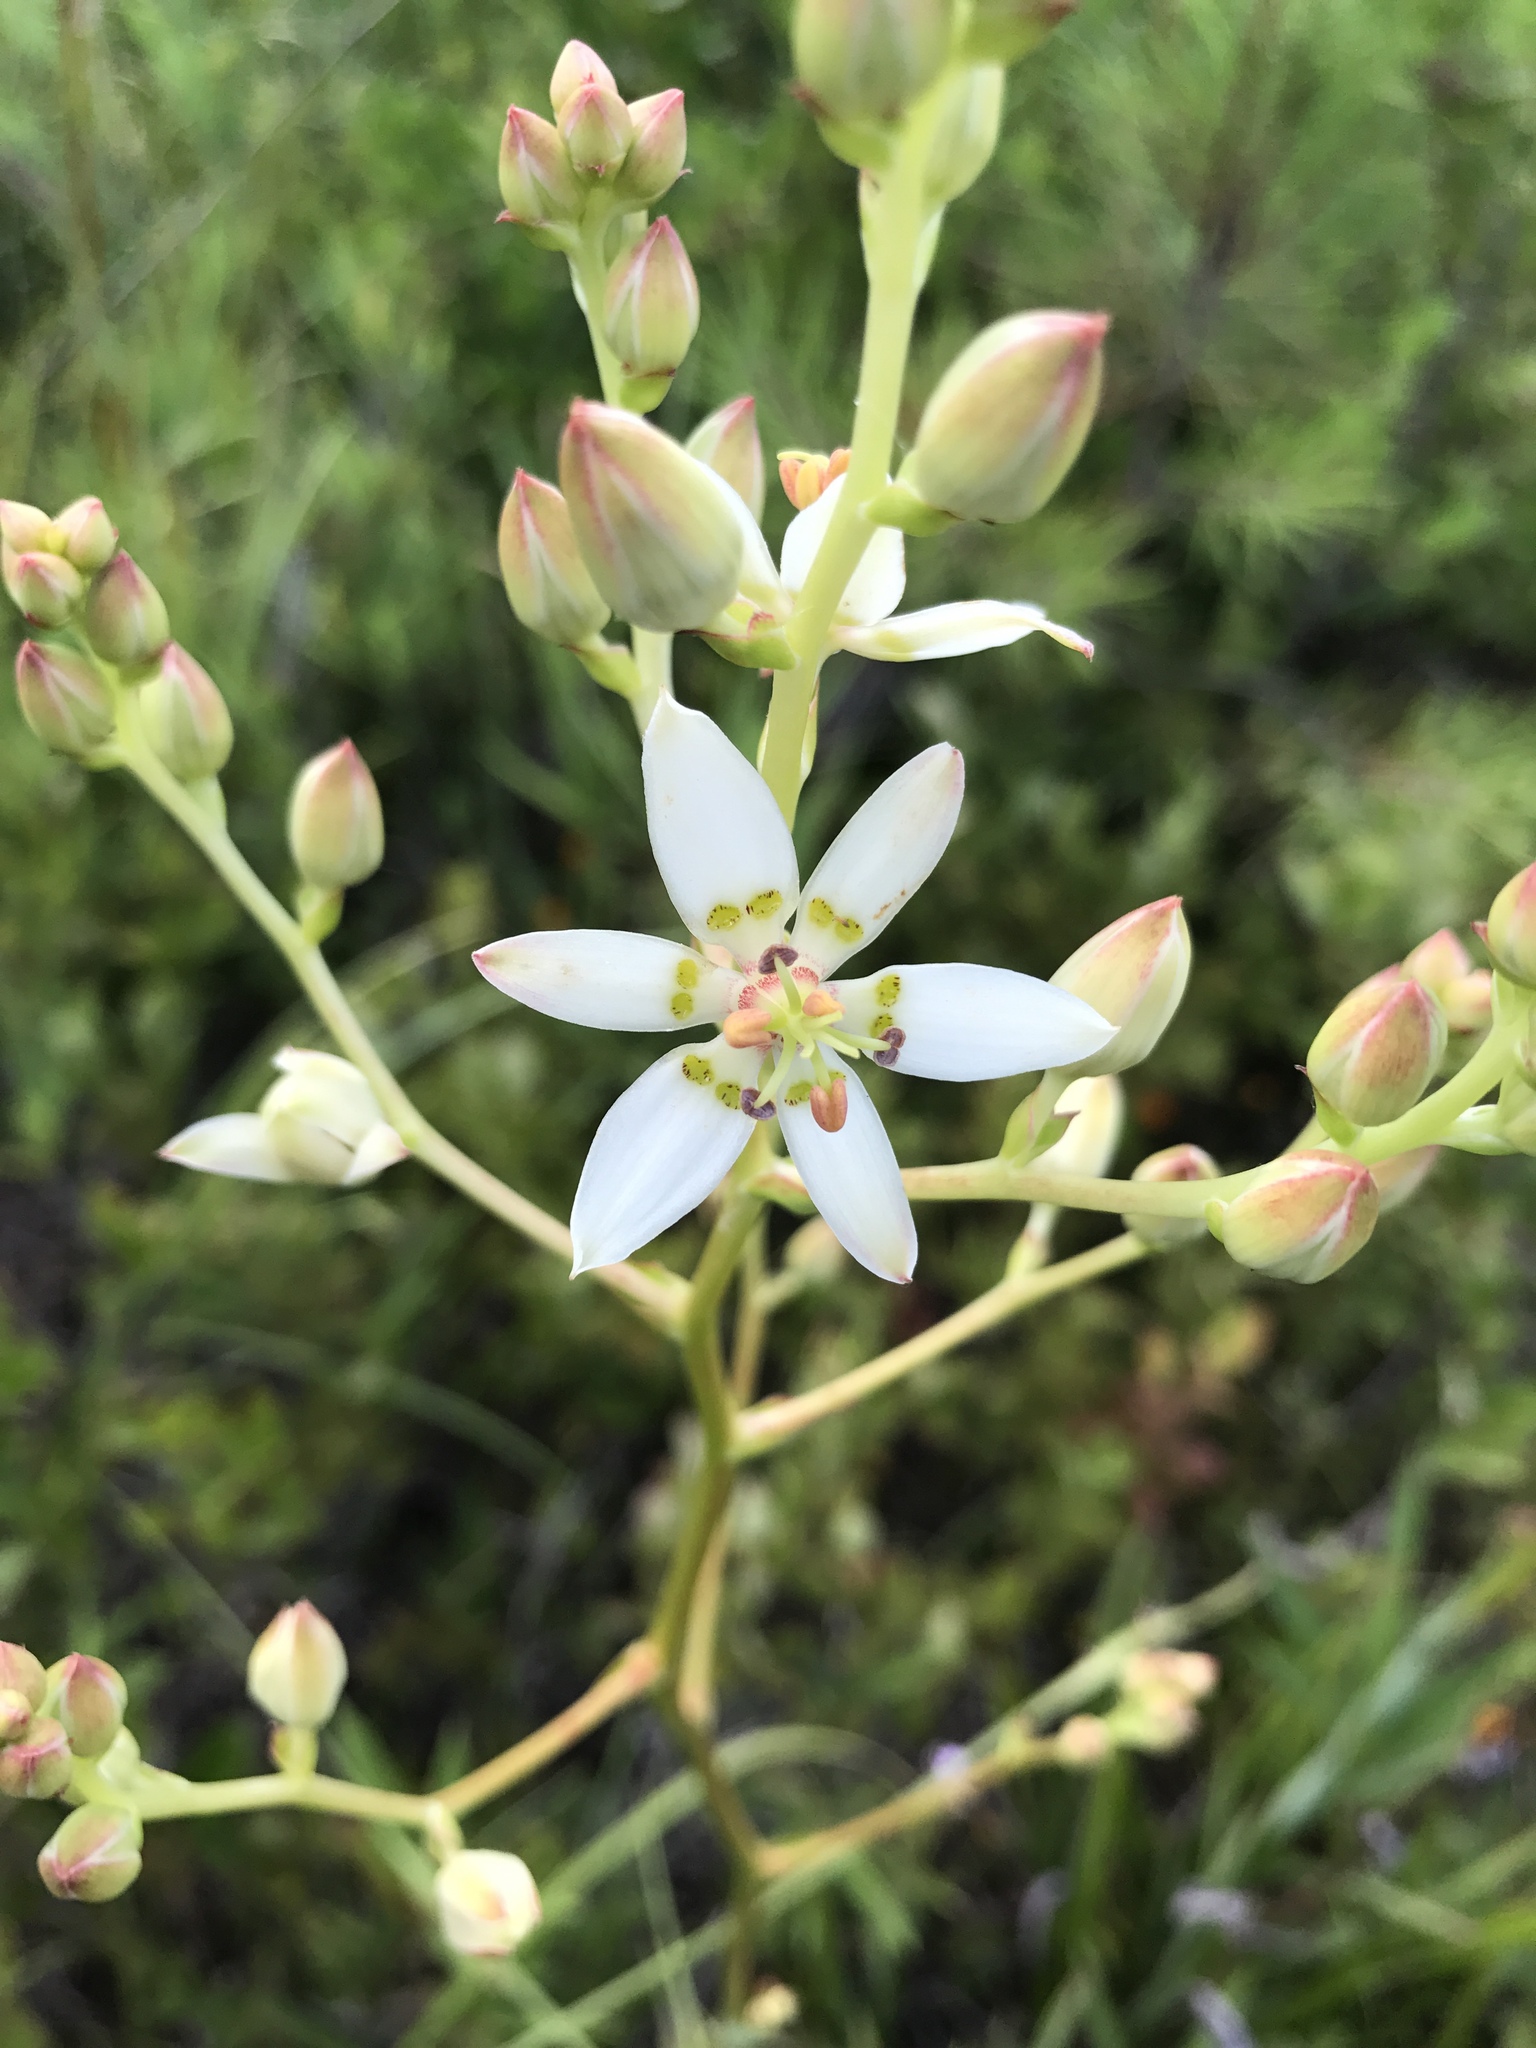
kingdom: Plantae
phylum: Tracheophyta
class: Liliopsida
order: Liliales
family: Melanthiaceae
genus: Zigadenus
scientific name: Zigadenus glaberrimus
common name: Sandbog death camas
